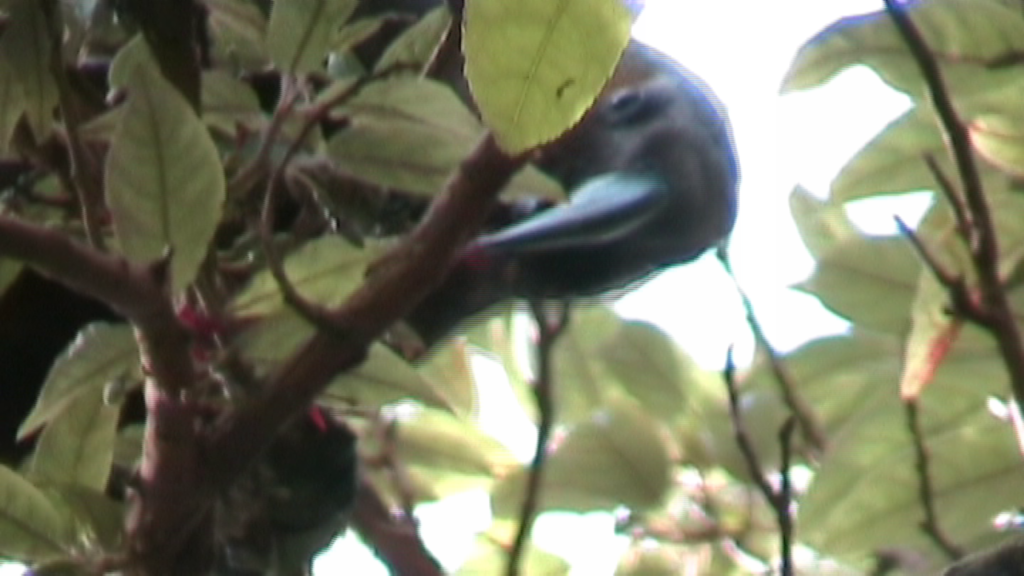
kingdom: Animalia
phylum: Chordata
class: Aves
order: Psittaciformes
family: Psittacidae
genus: Nestor
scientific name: Nestor meridionalis
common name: New zealand kaka
